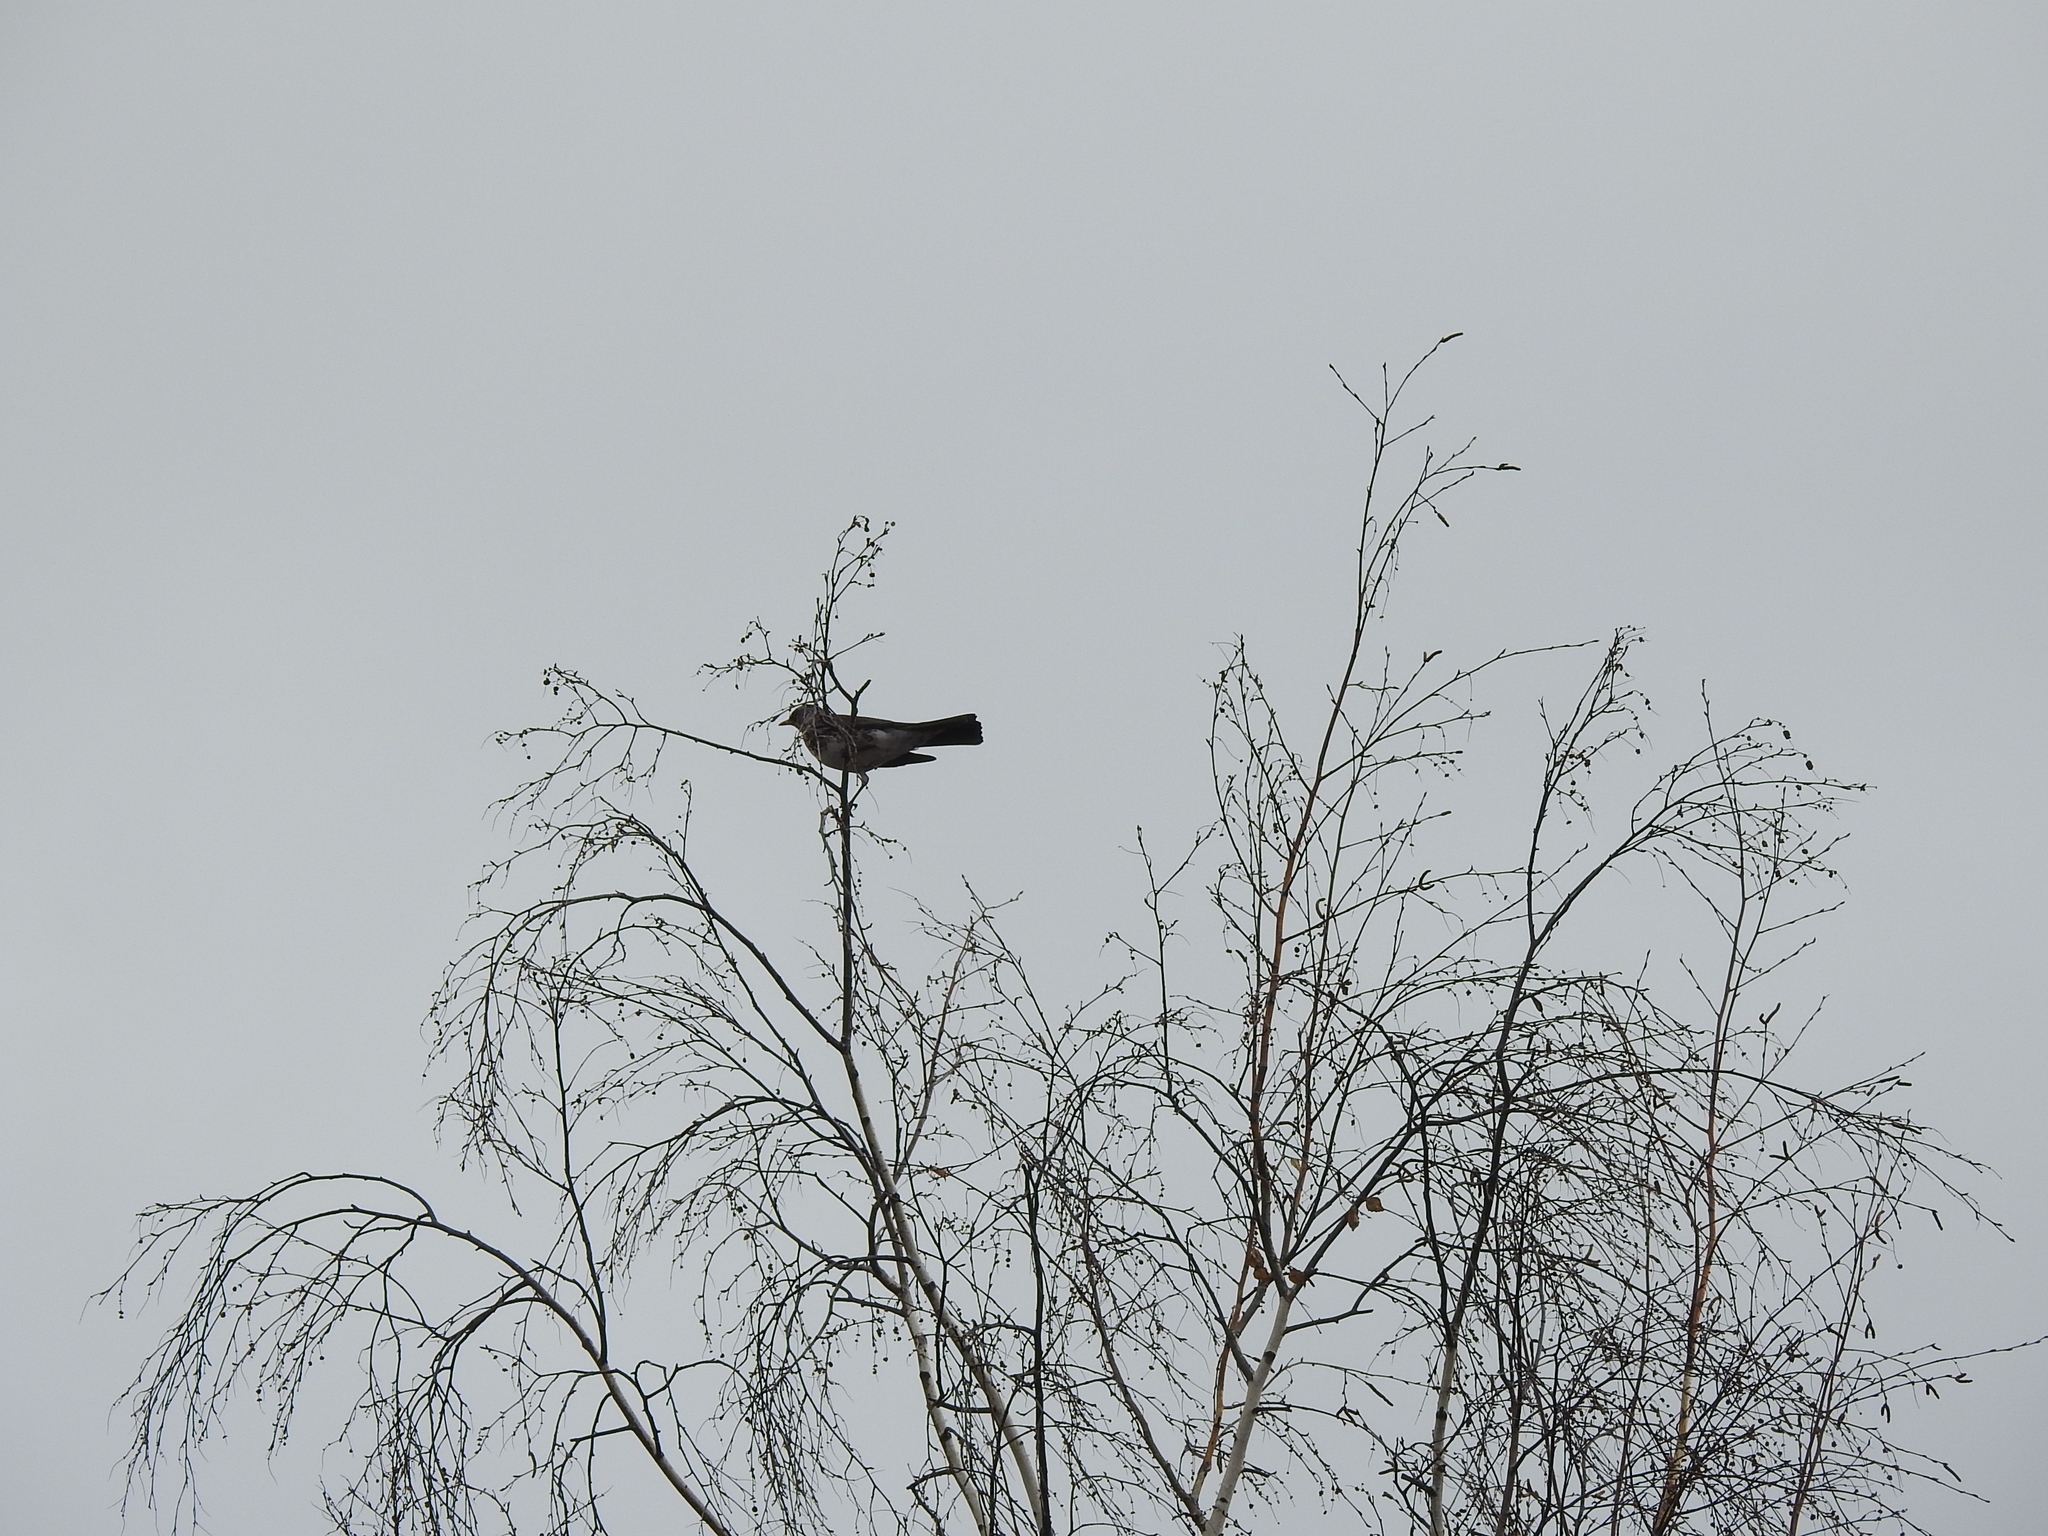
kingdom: Animalia
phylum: Chordata
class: Aves
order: Passeriformes
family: Turdidae
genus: Turdus
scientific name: Turdus pilaris
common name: Fieldfare
